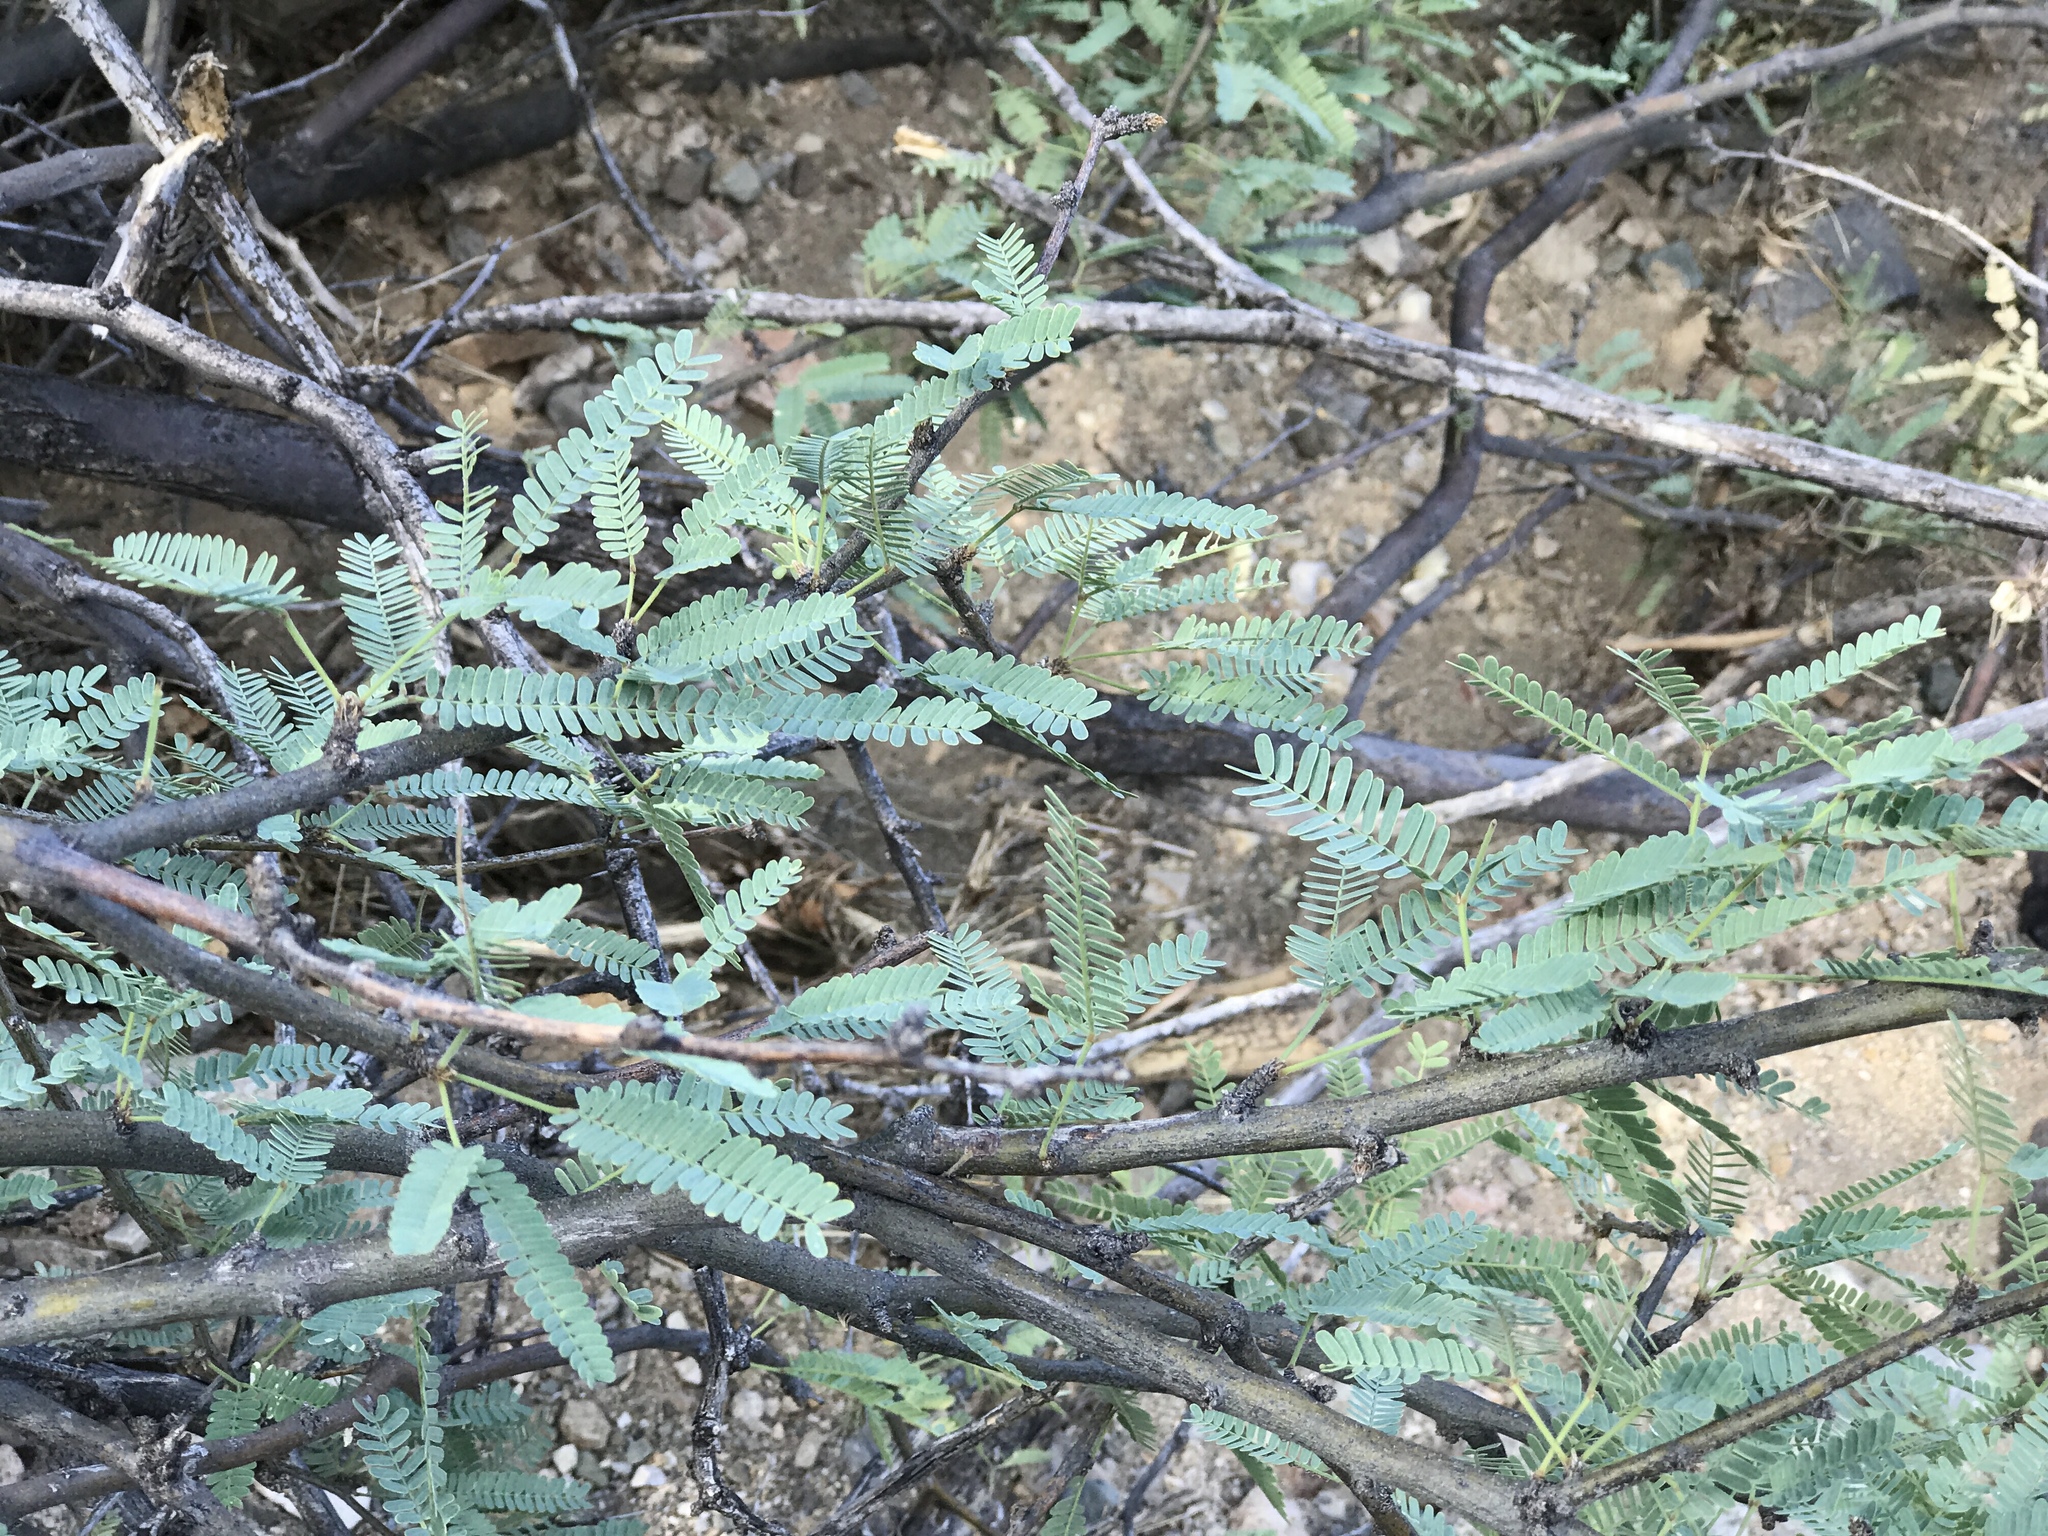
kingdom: Plantae
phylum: Tracheophyta
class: Magnoliopsida
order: Fabales
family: Fabaceae
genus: Prosopis
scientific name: Prosopis velutina
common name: Velvet mesquite
